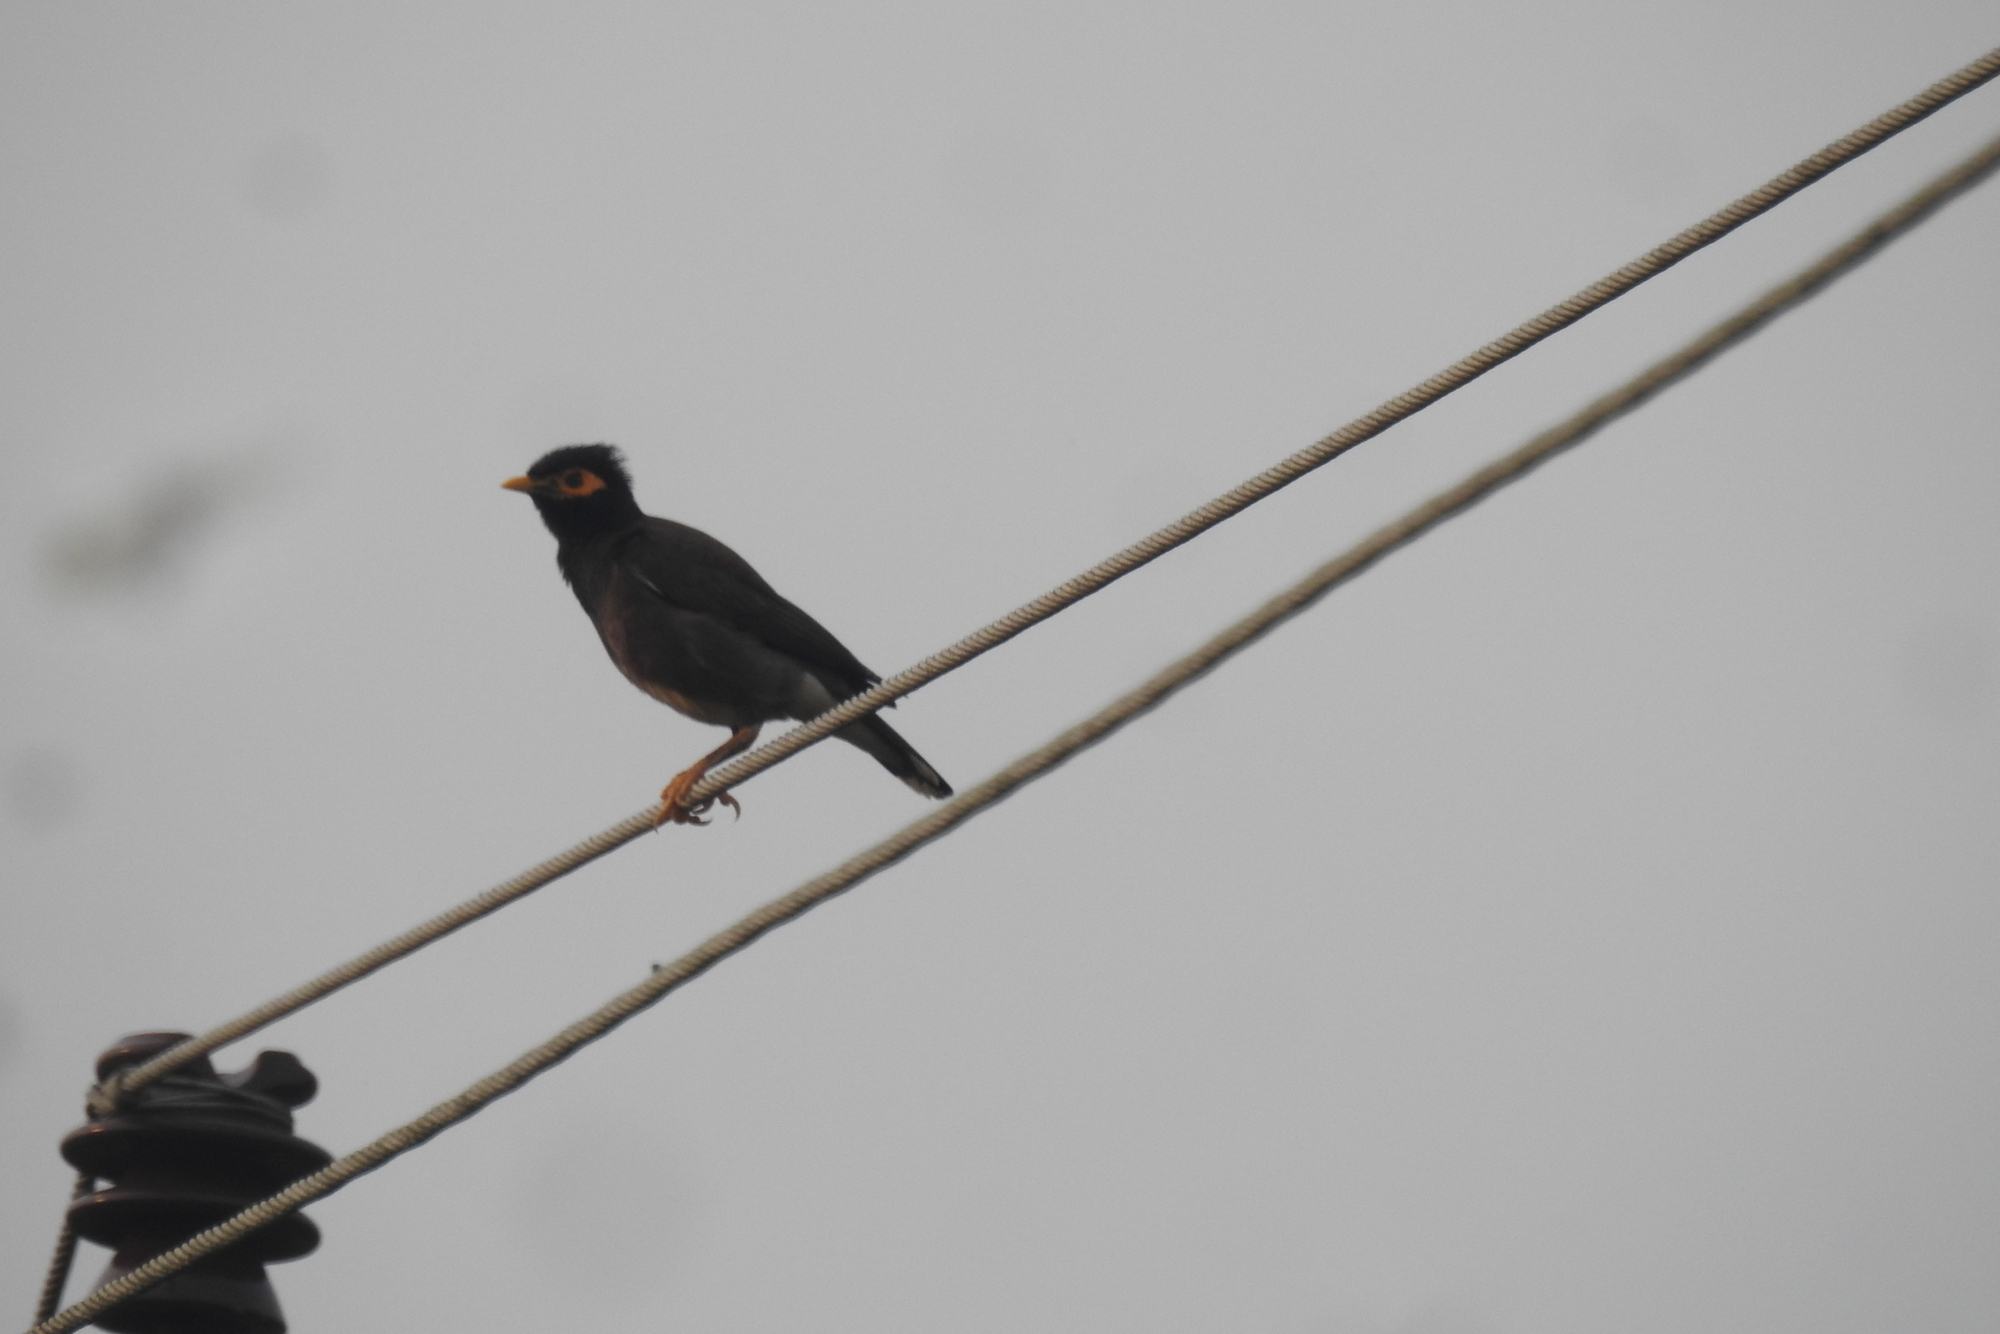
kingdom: Animalia
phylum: Chordata
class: Aves
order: Passeriformes
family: Sturnidae
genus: Acridotheres
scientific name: Acridotheres tristis
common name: Common myna
